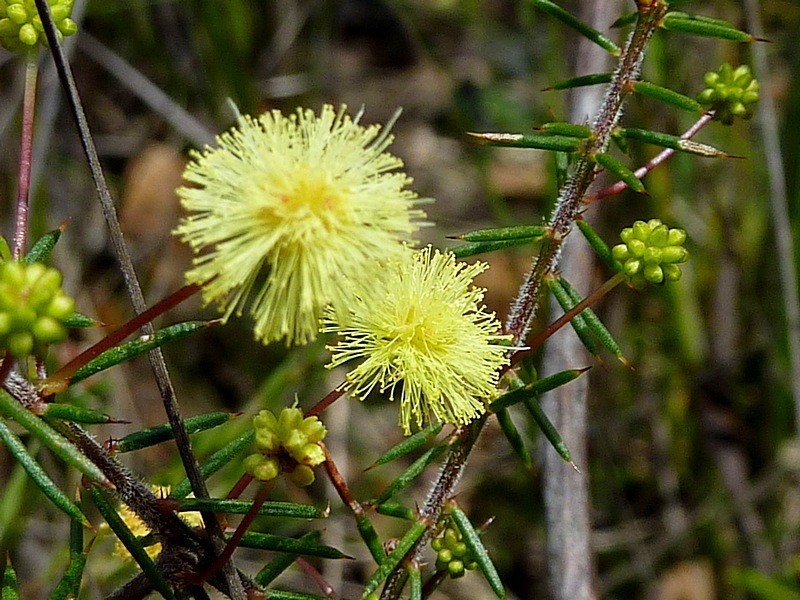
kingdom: Plantae
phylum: Tracheophyta
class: Magnoliopsida
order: Fabales
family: Fabaceae
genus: Acacia
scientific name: Acacia aculeatissima
